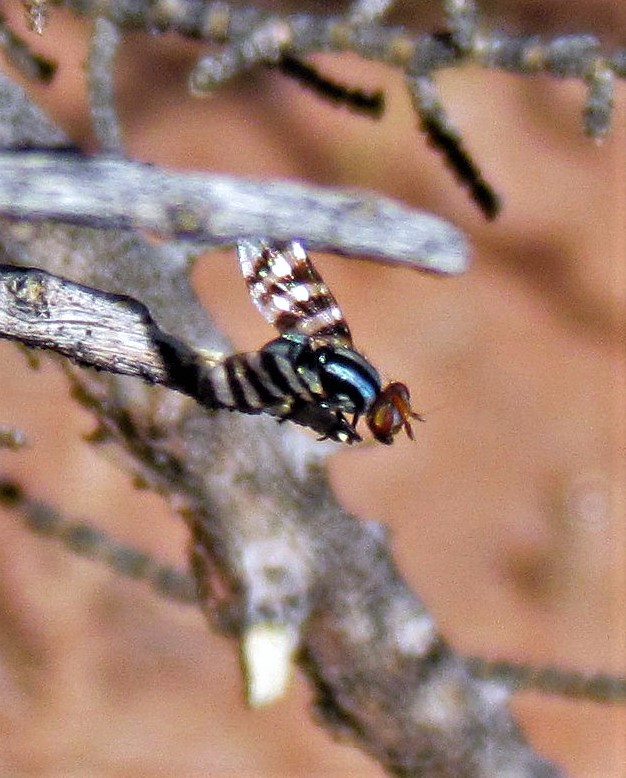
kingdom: Animalia
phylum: Arthropoda
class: Insecta
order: Diptera
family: Ulidiidae
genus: Pterotaenia
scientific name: Pterotaenia fasciata
